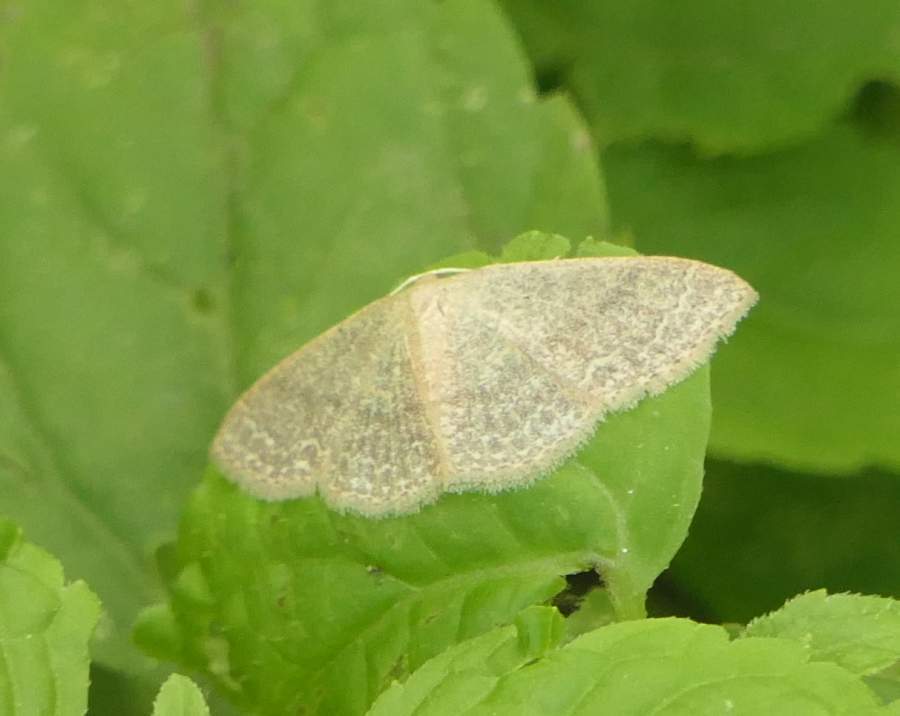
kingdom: Animalia
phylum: Arthropoda
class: Insecta
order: Lepidoptera
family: Geometridae
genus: Pleuroprucha
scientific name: Pleuroprucha insulsaria
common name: Common tan wave
